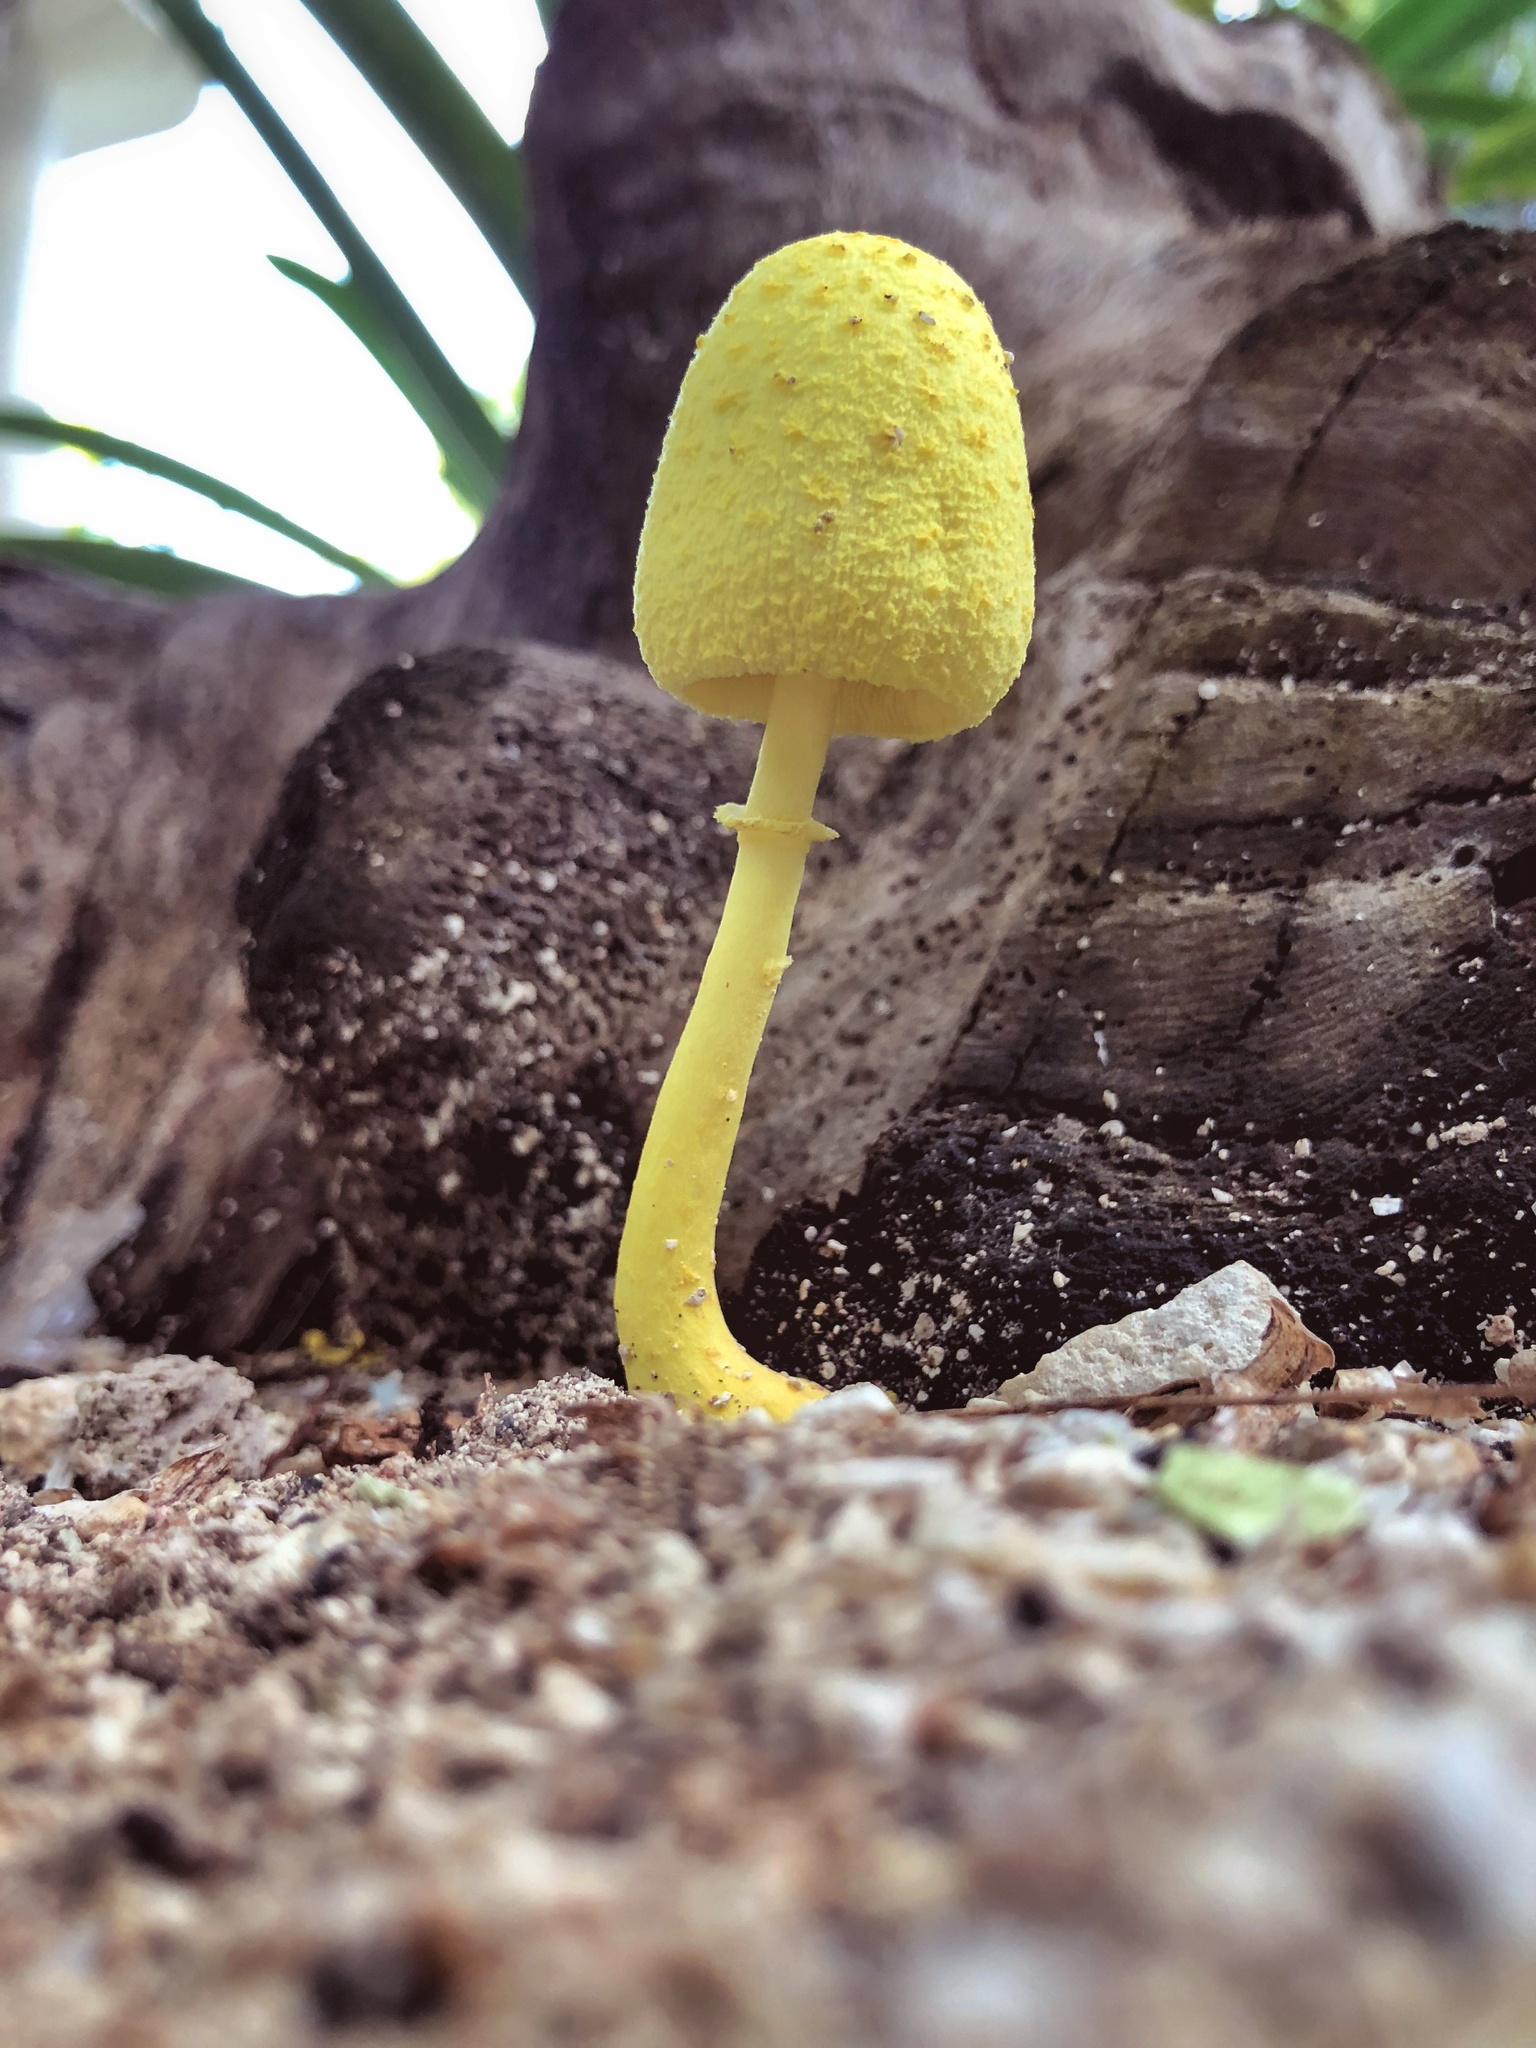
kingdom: Fungi
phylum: Basidiomycota
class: Agaricomycetes
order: Agaricales
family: Agaricaceae
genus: Leucocoprinus
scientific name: Leucocoprinus birnbaumii
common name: Plantpot dapperling
